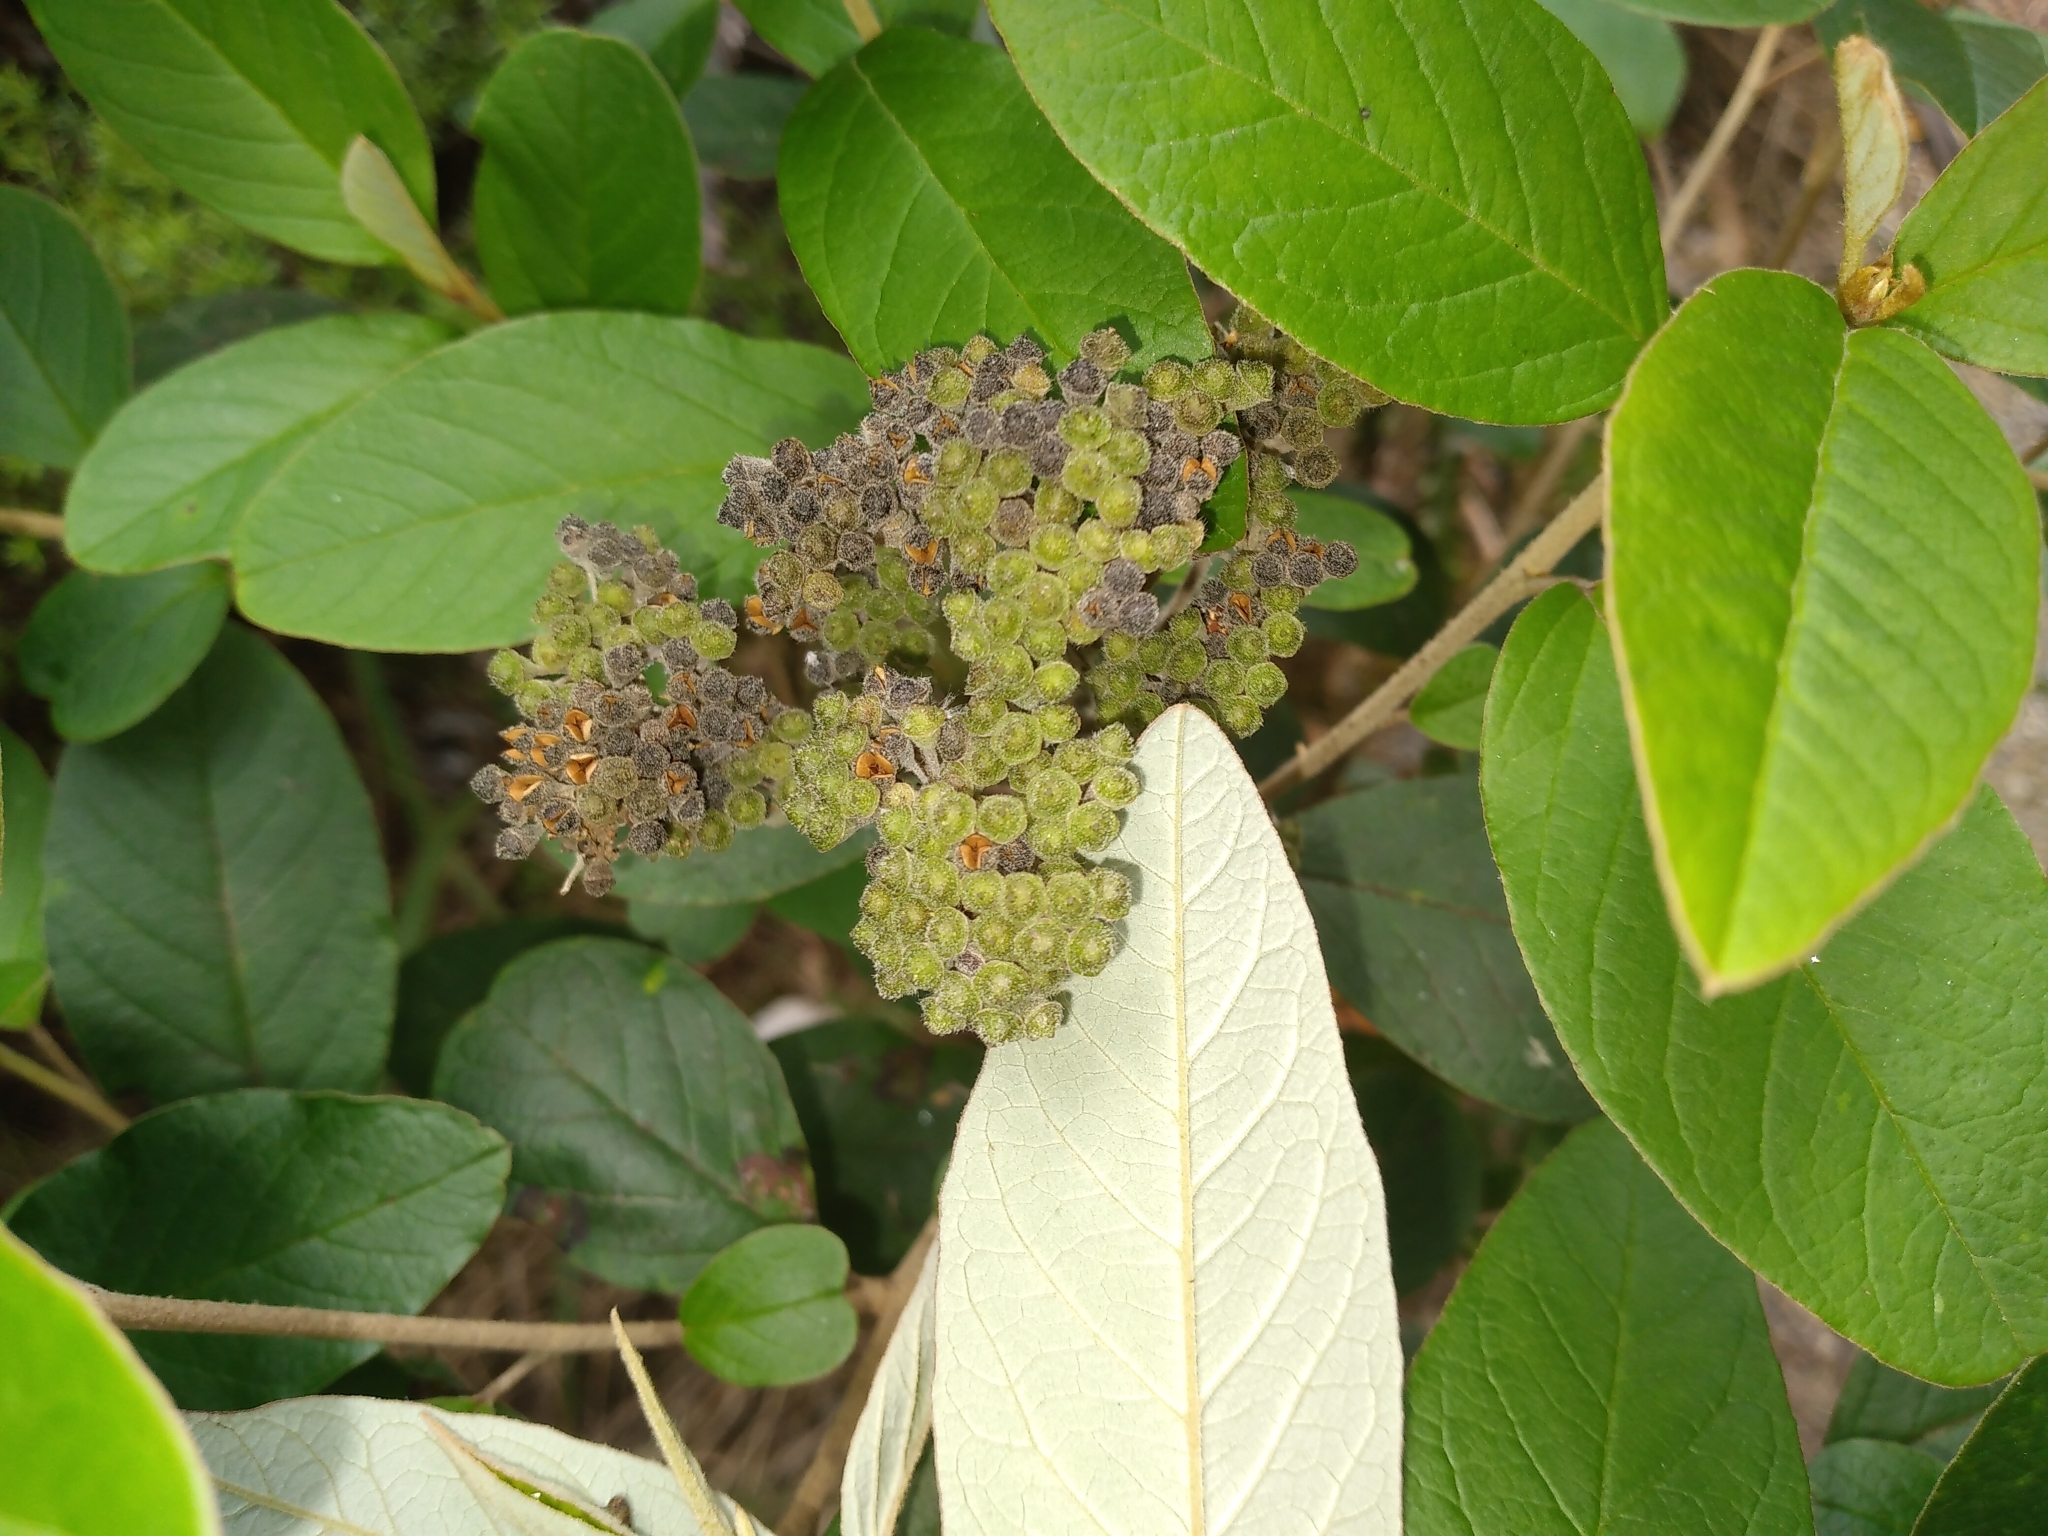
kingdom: Plantae
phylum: Tracheophyta
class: Magnoliopsida
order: Rosales
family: Rhamnaceae
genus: Pomaderris
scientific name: Pomaderris kumeraho
